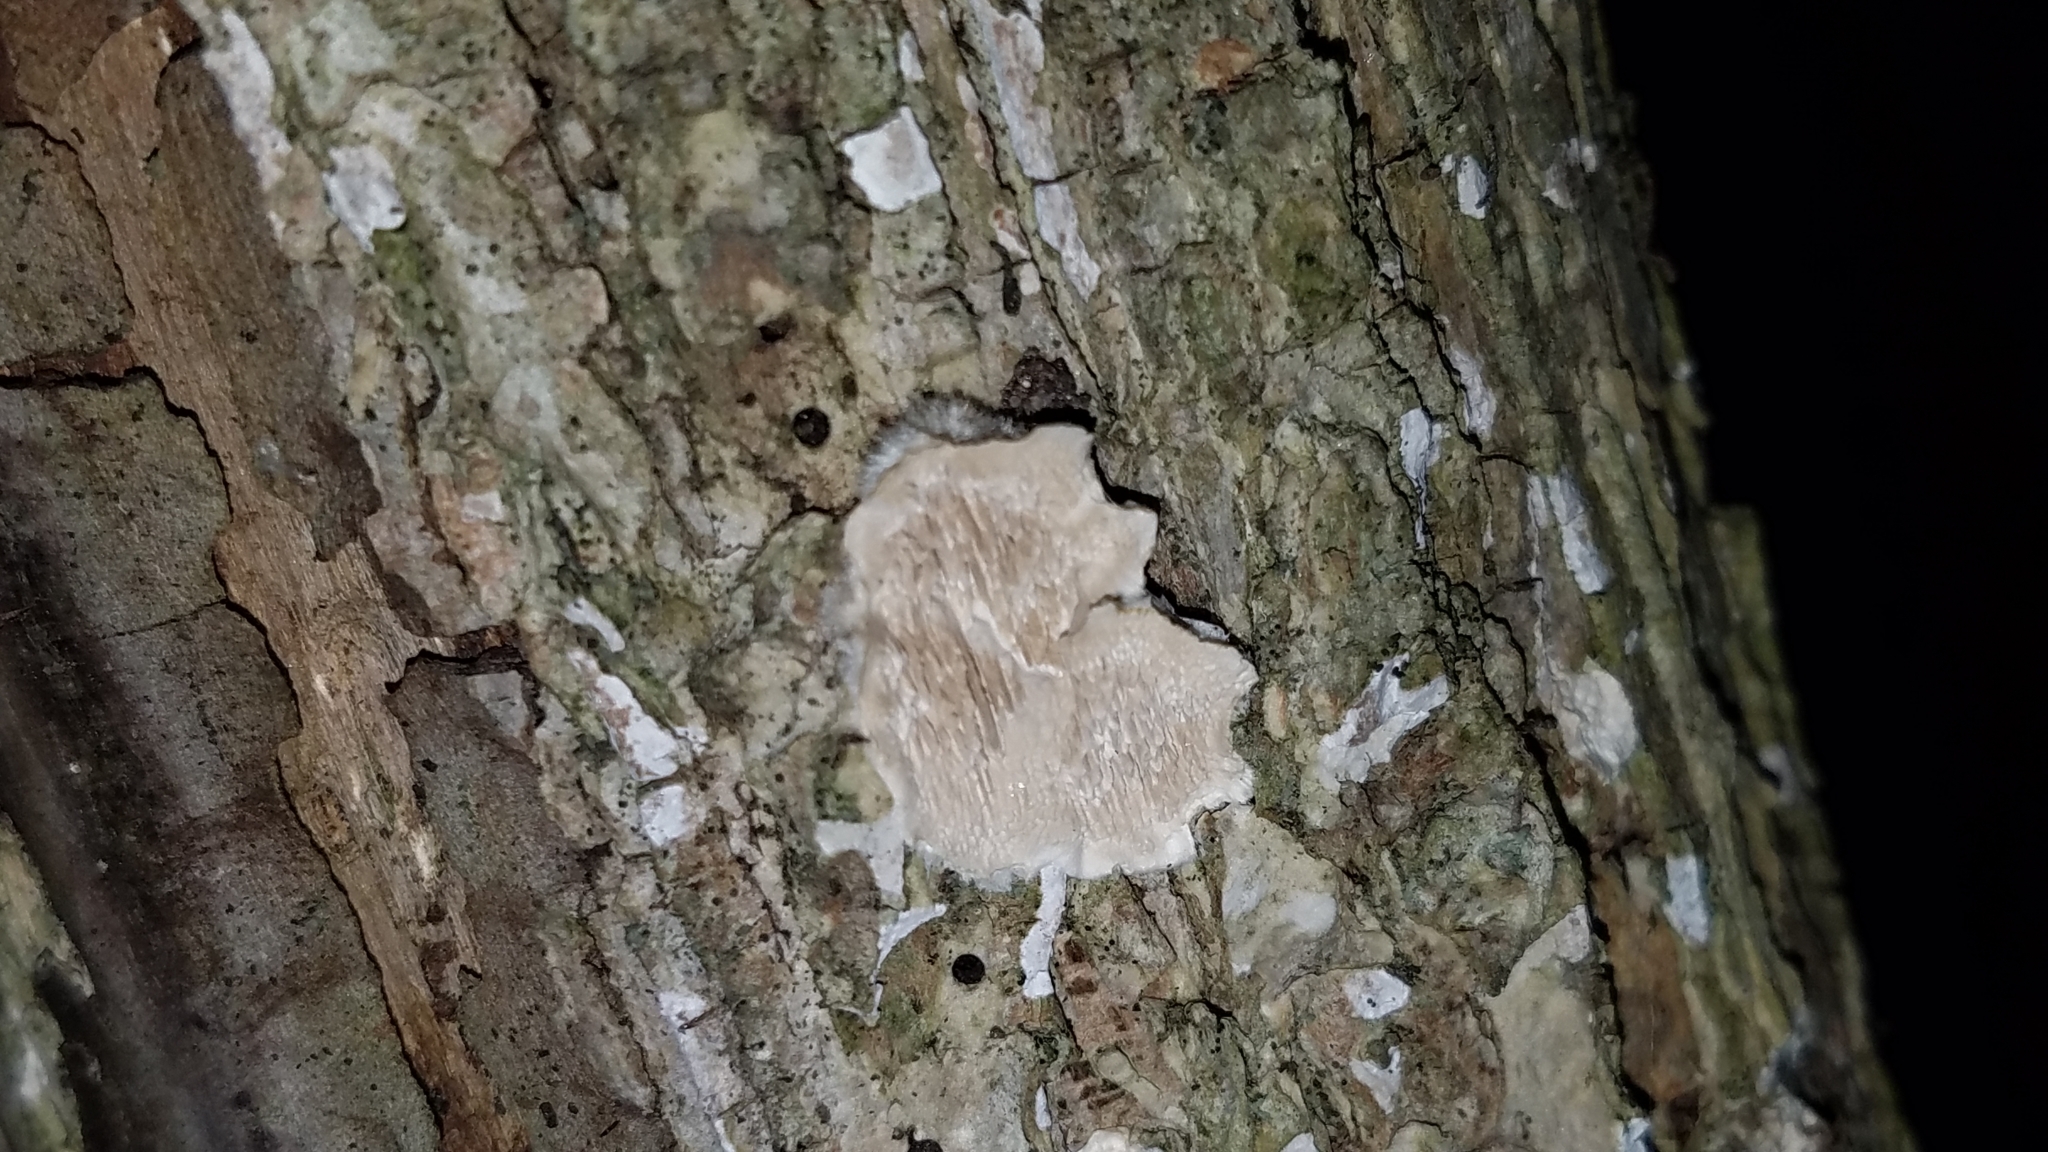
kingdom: Fungi
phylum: Basidiomycota
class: Agaricomycetes
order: Polyporales
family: Meruliaceae
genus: Irpiciporus
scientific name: Irpiciporus pachyodon
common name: Marshmallow polypore
